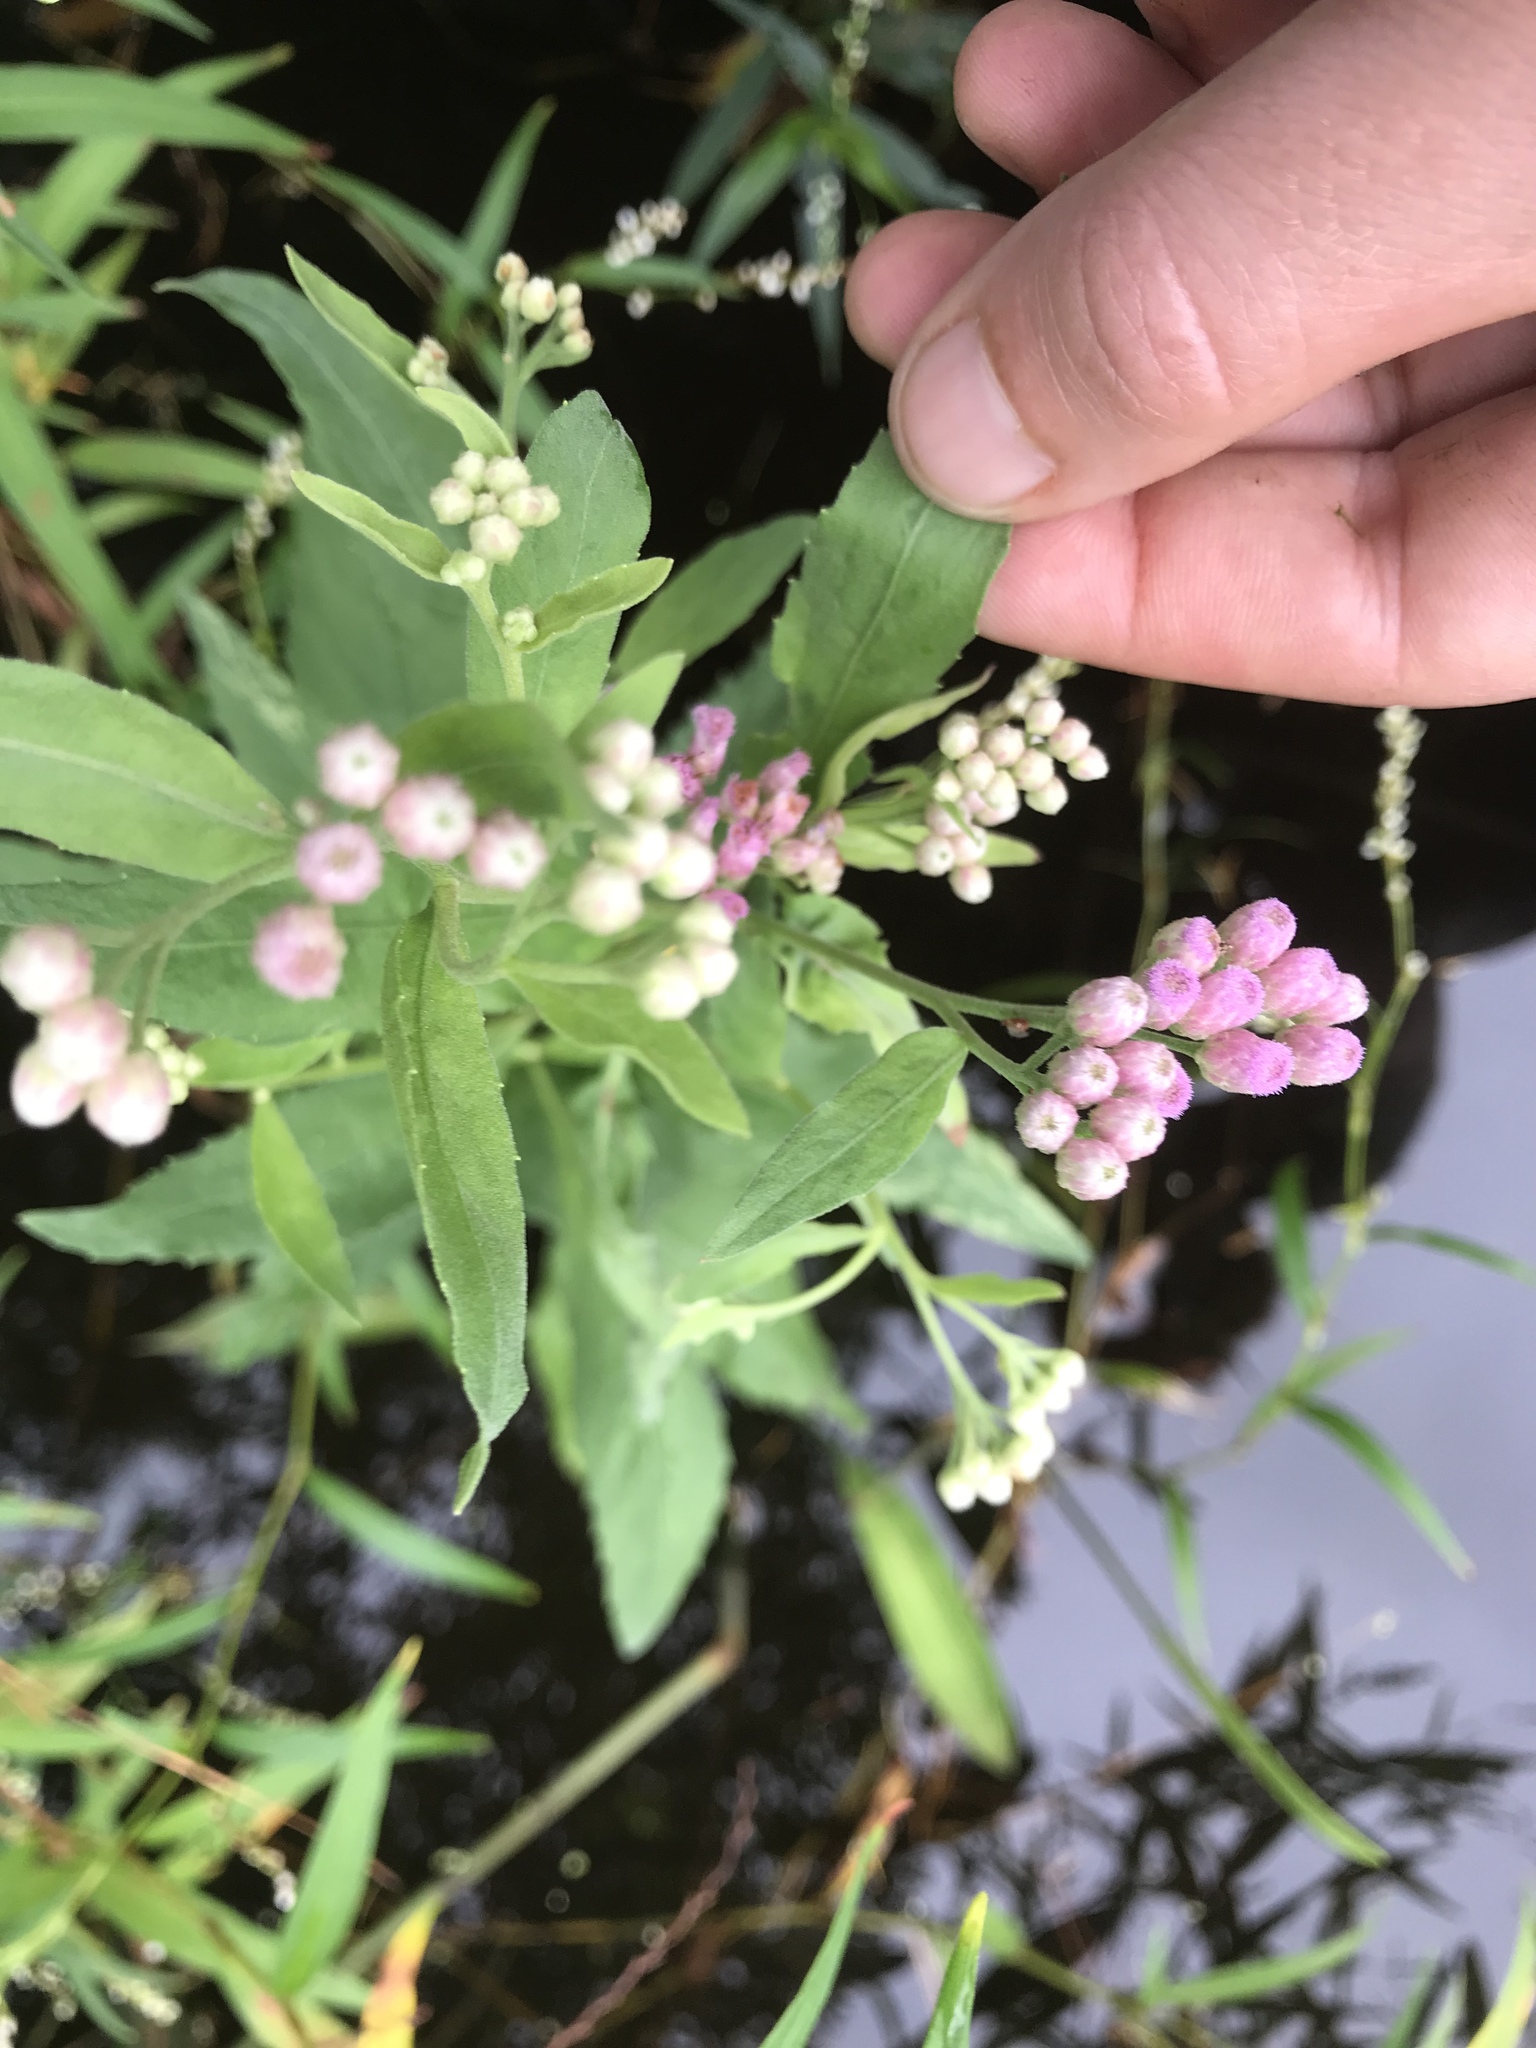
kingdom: Plantae
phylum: Tracheophyta
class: Magnoliopsida
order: Asterales
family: Asteraceae
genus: Pluchea
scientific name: Pluchea odorata
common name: Saltmarsh fleabane
